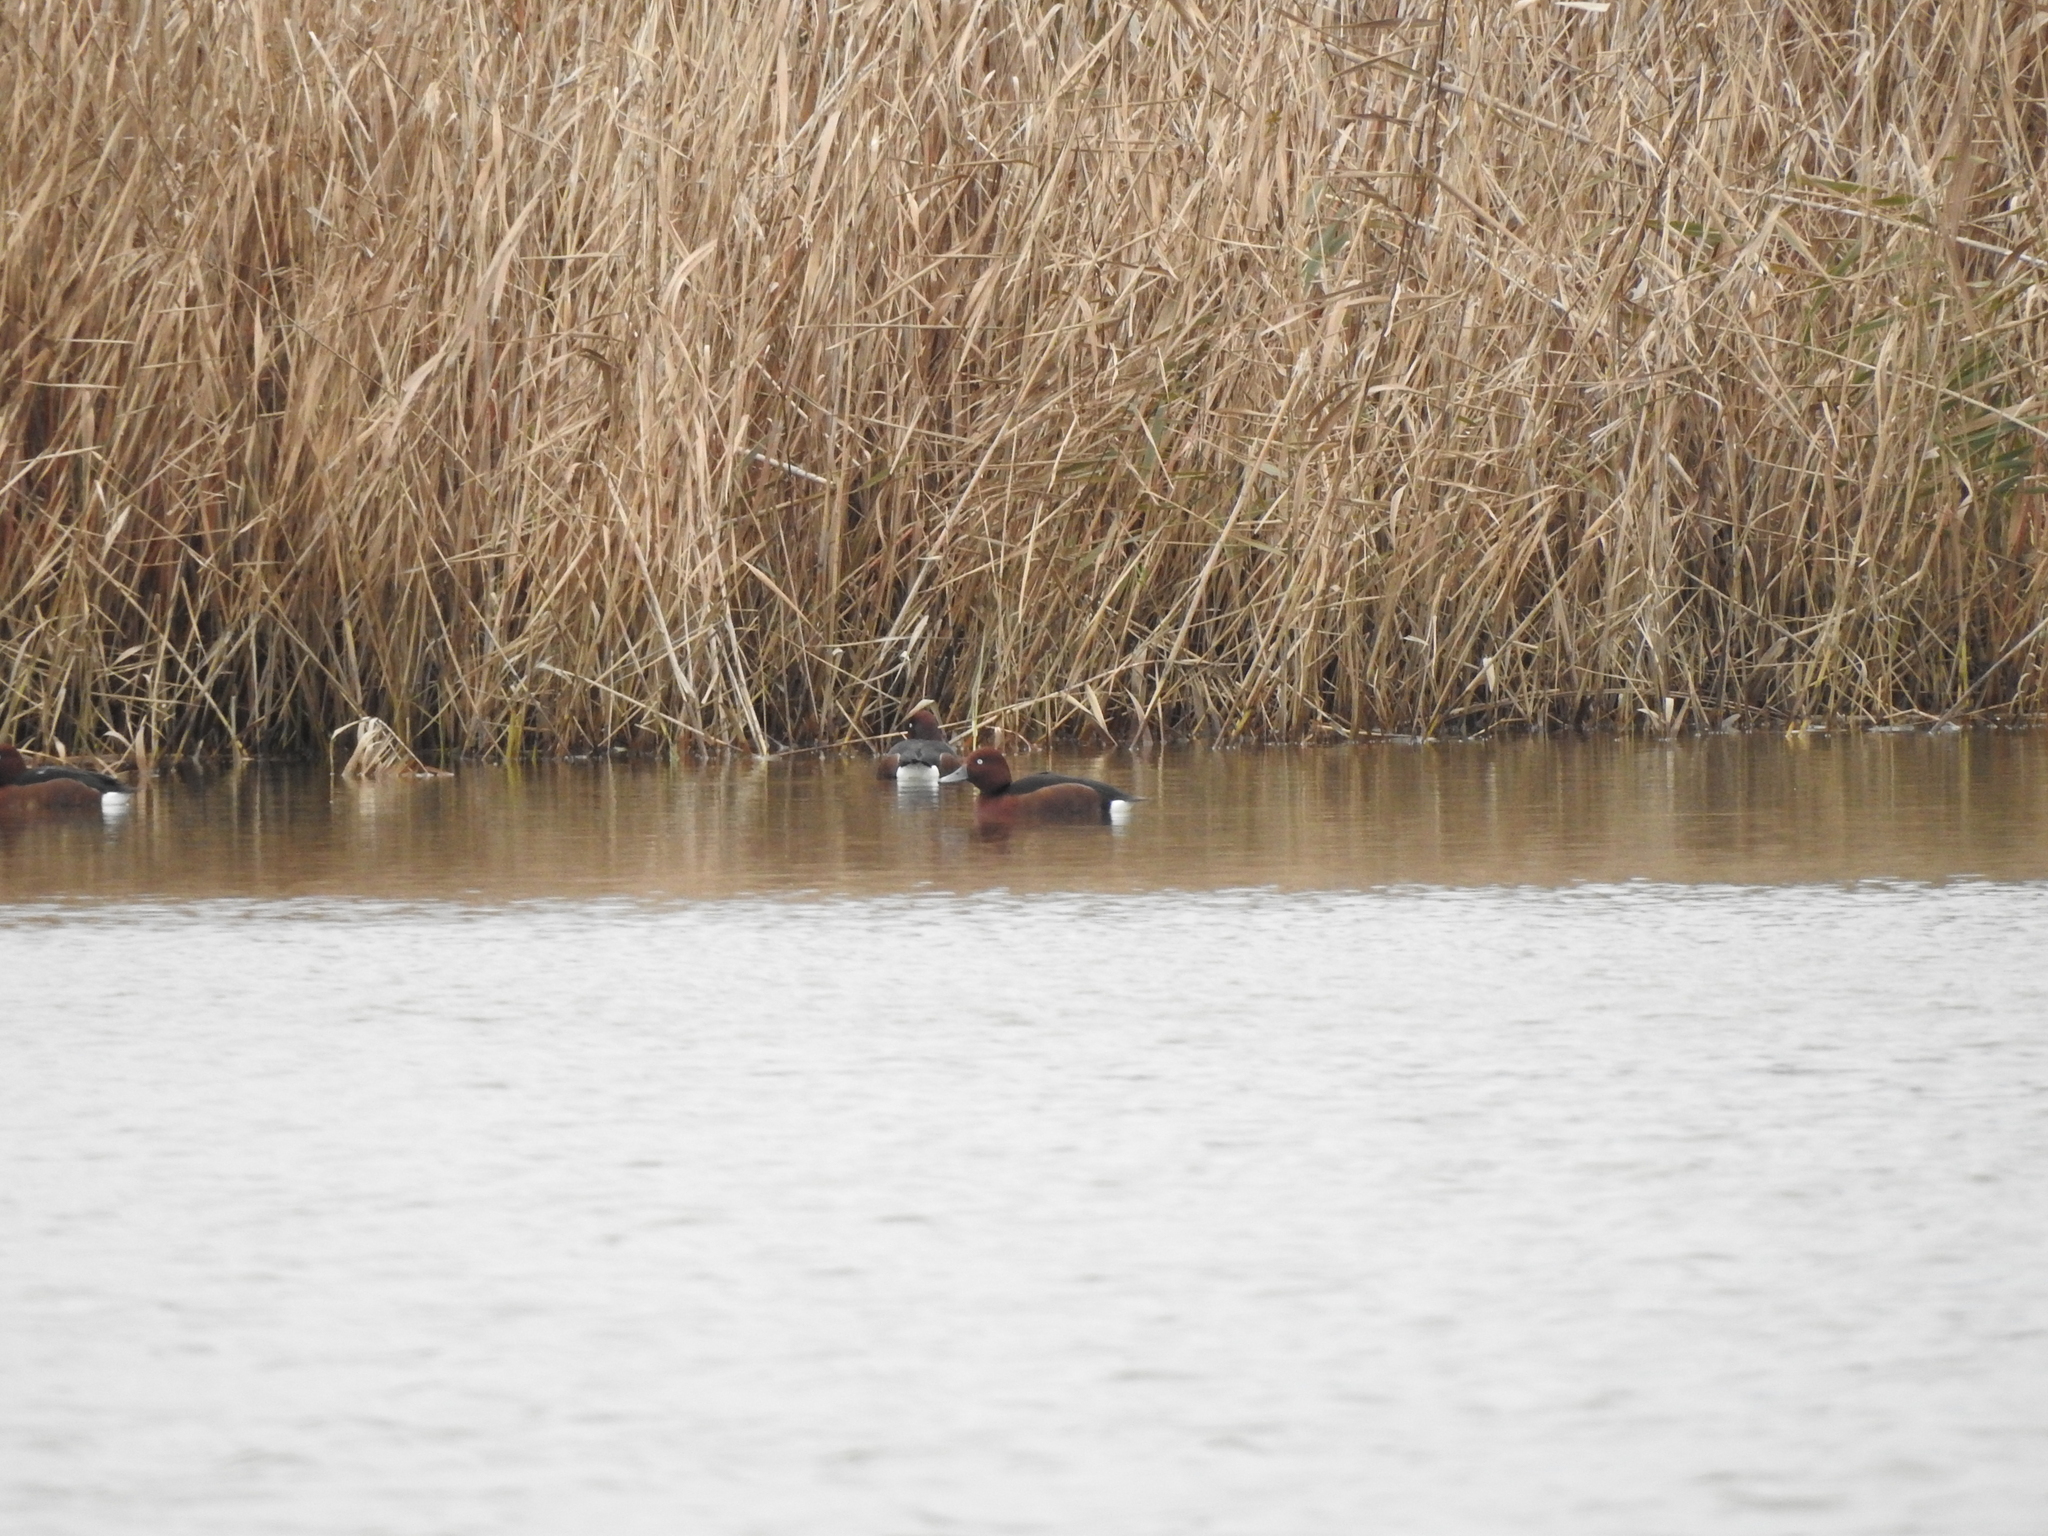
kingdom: Animalia
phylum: Chordata
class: Aves
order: Anseriformes
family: Anatidae
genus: Aythya
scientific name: Aythya nyroca
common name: Ferruginous duck
